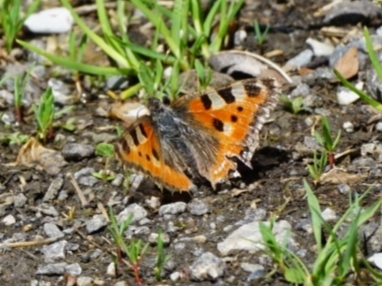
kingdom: Animalia
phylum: Arthropoda
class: Insecta
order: Lepidoptera
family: Nymphalidae
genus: Aglais
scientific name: Aglais urticae
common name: Small tortoiseshell
